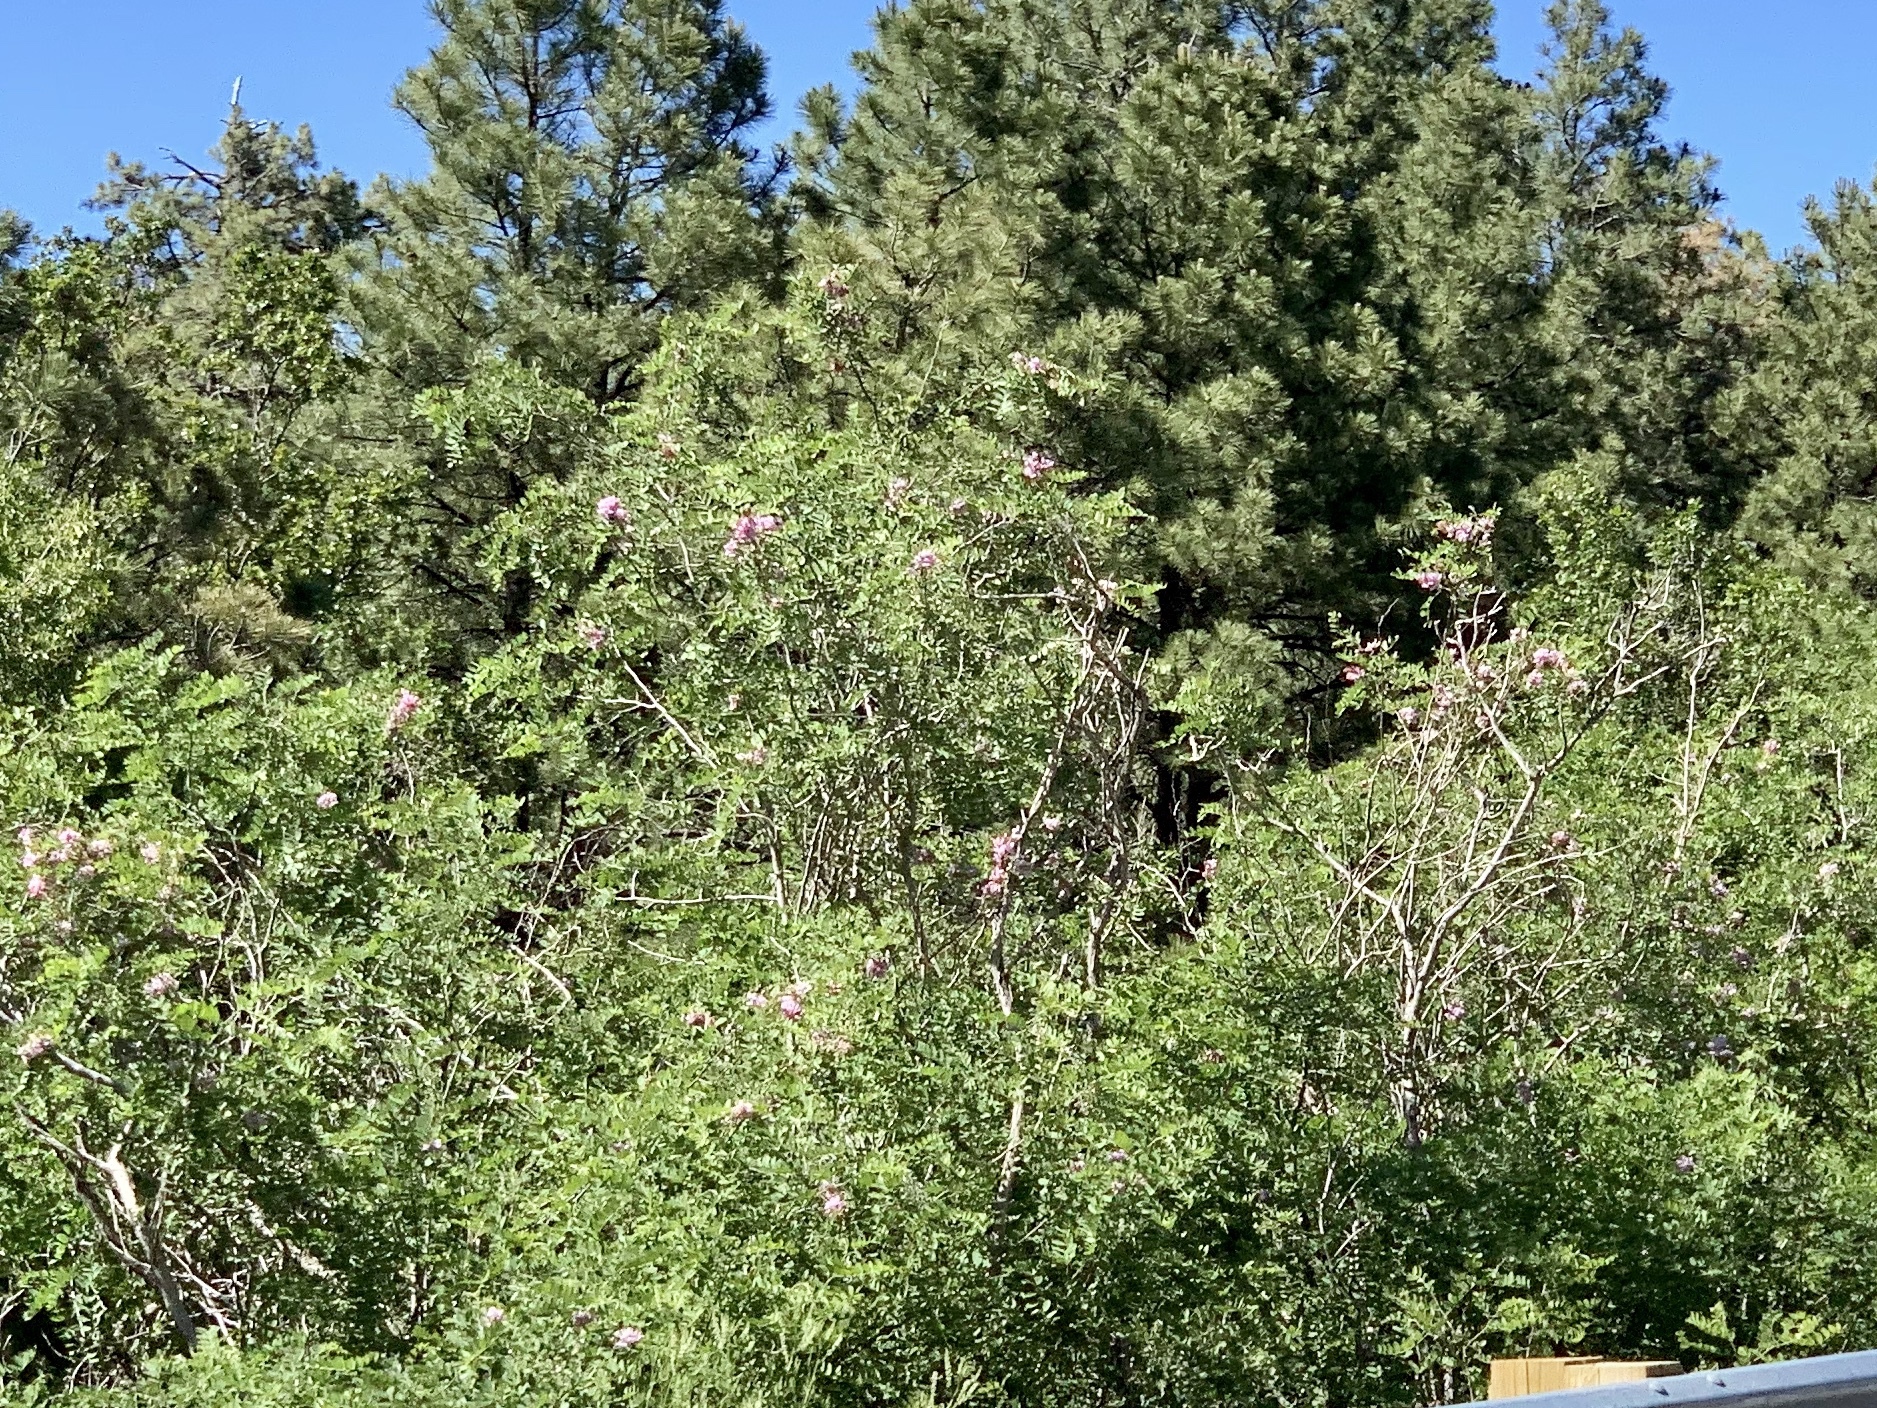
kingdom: Plantae
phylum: Tracheophyta
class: Magnoliopsida
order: Fabales
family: Fabaceae
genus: Robinia
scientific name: Robinia neomexicana
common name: New mexico locust
